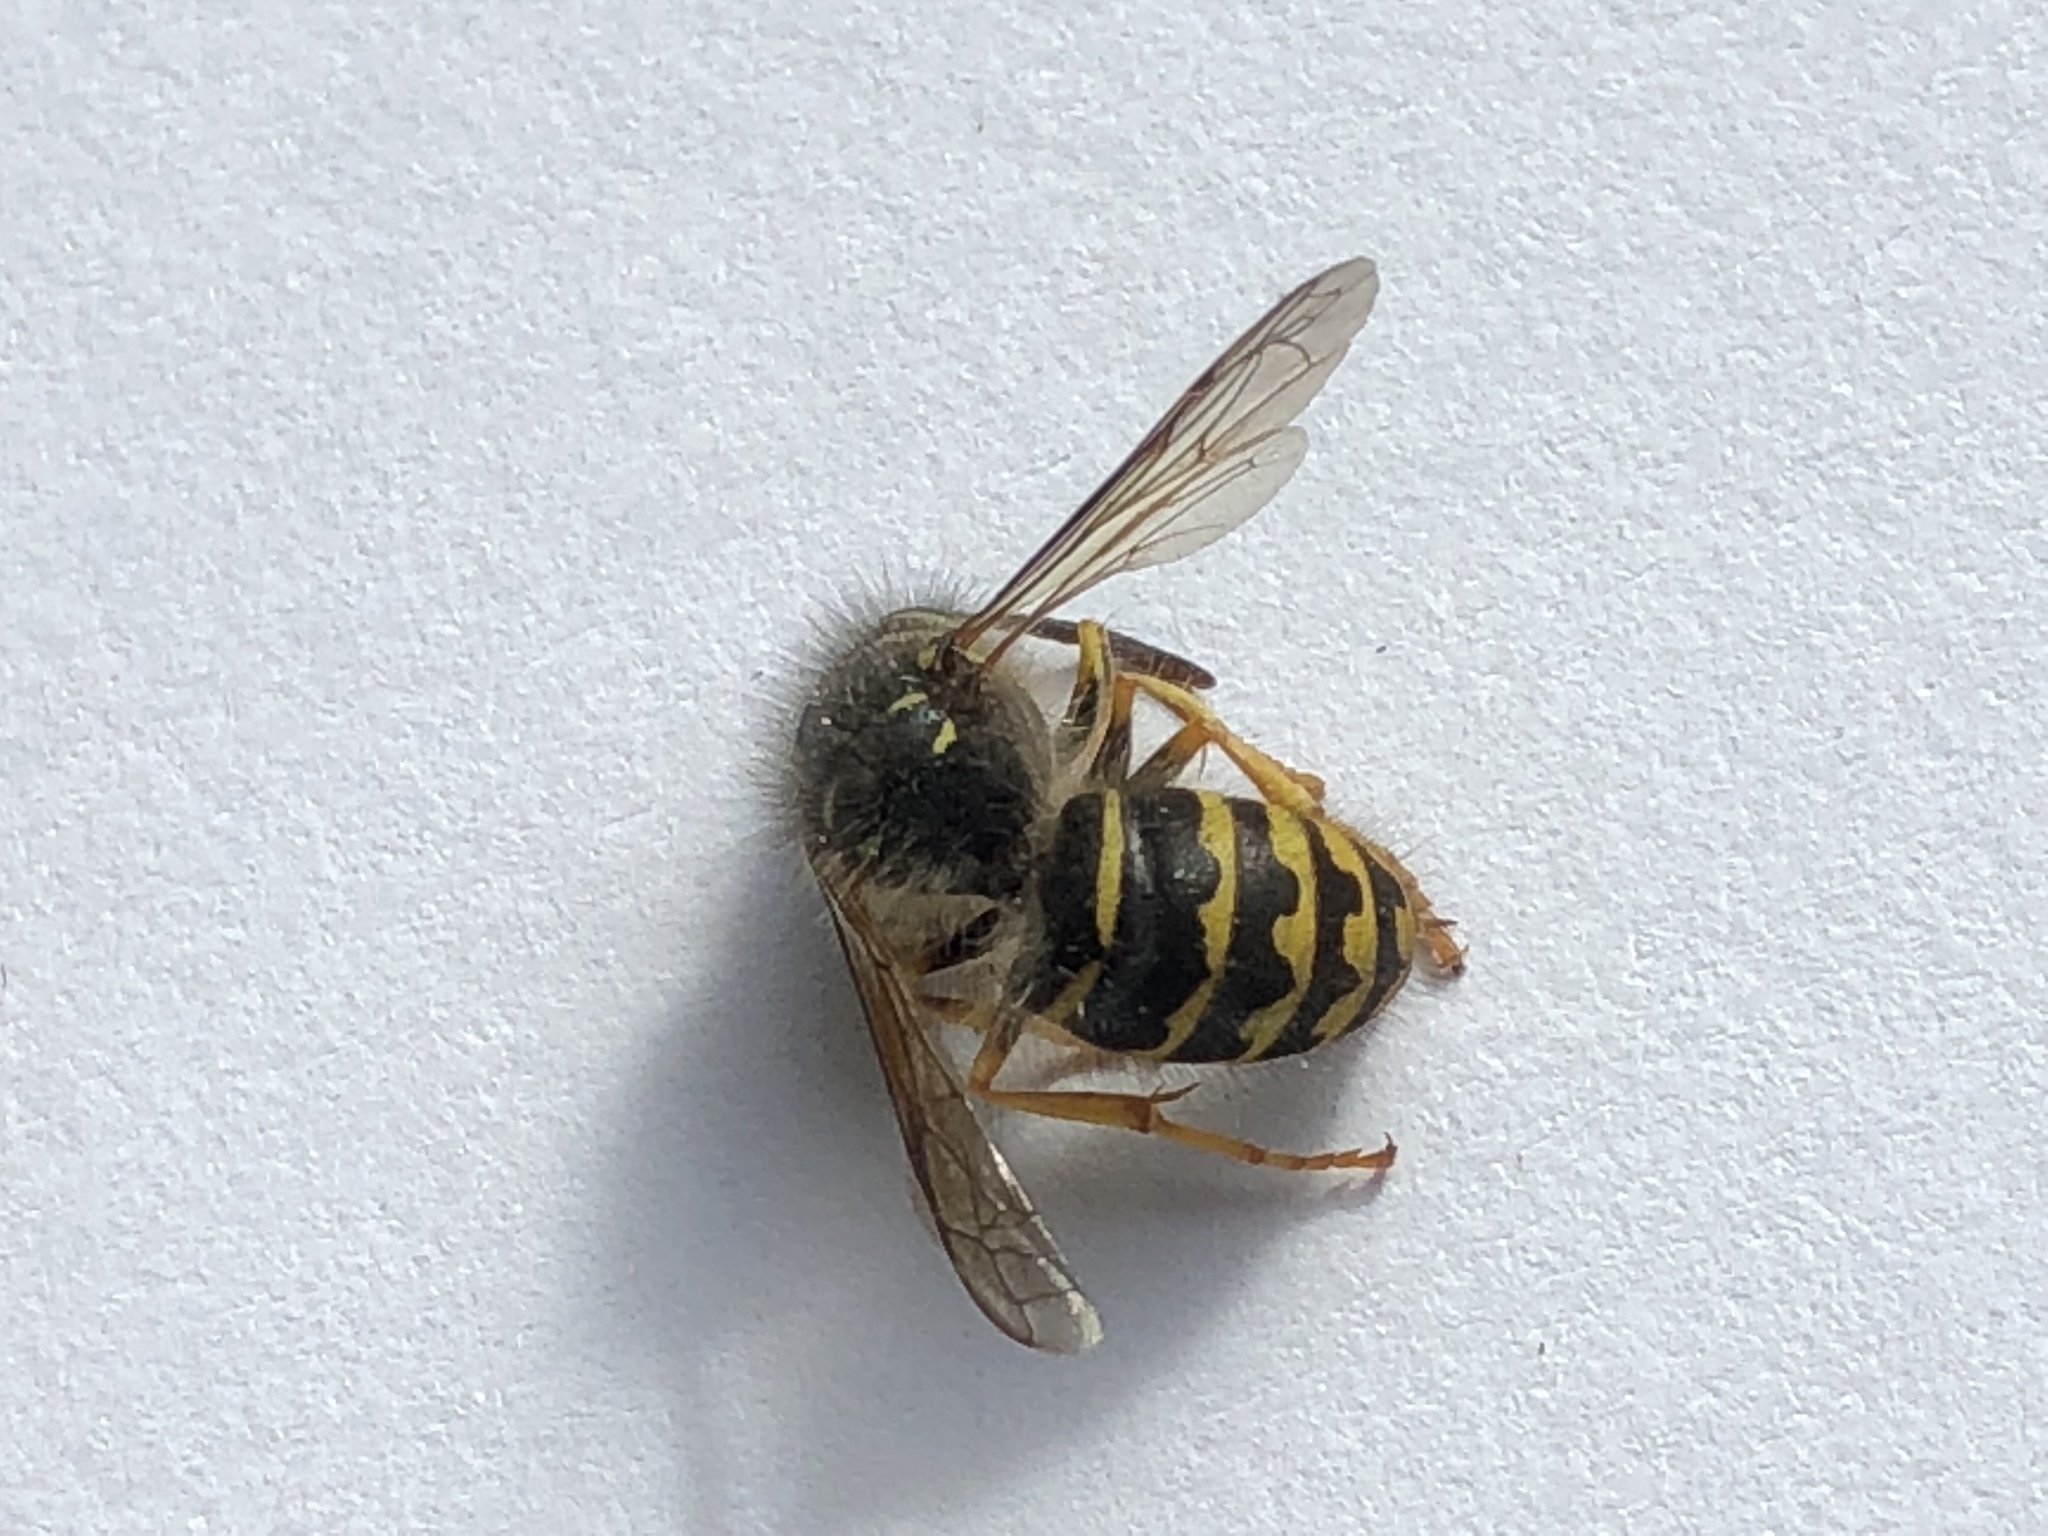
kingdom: Animalia
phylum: Arthropoda
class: Insecta
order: Hymenoptera
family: Vespidae
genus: Dolichovespula
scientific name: Dolichovespula arenaria
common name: Aerial yellowjacket
